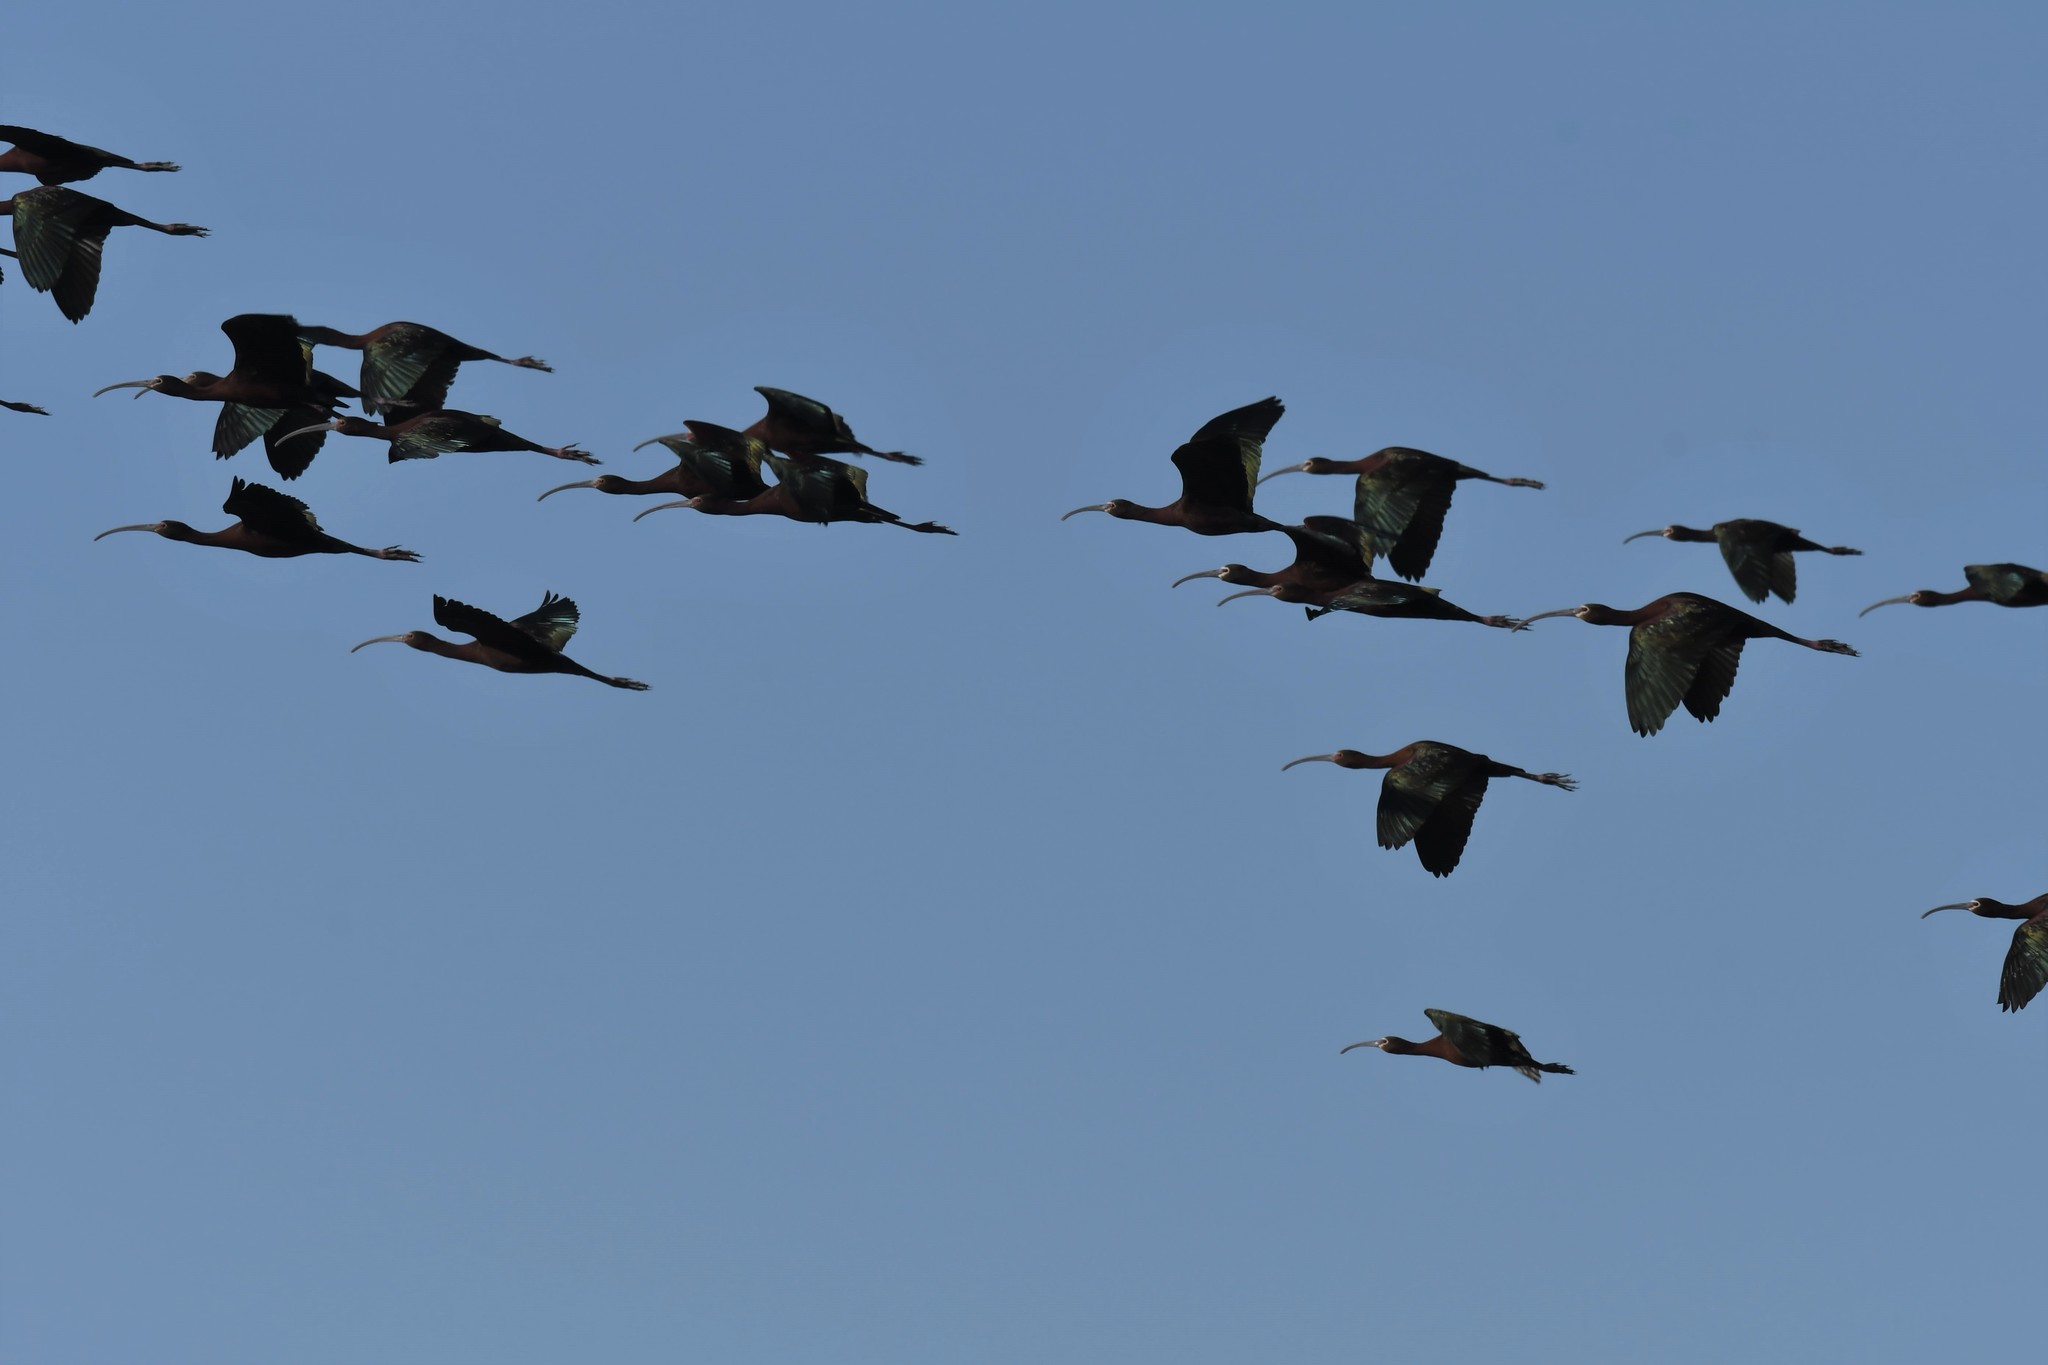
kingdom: Animalia
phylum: Chordata
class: Aves
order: Pelecaniformes
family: Threskiornithidae
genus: Plegadis
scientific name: Plegadis chihi
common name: White-faced ibis
